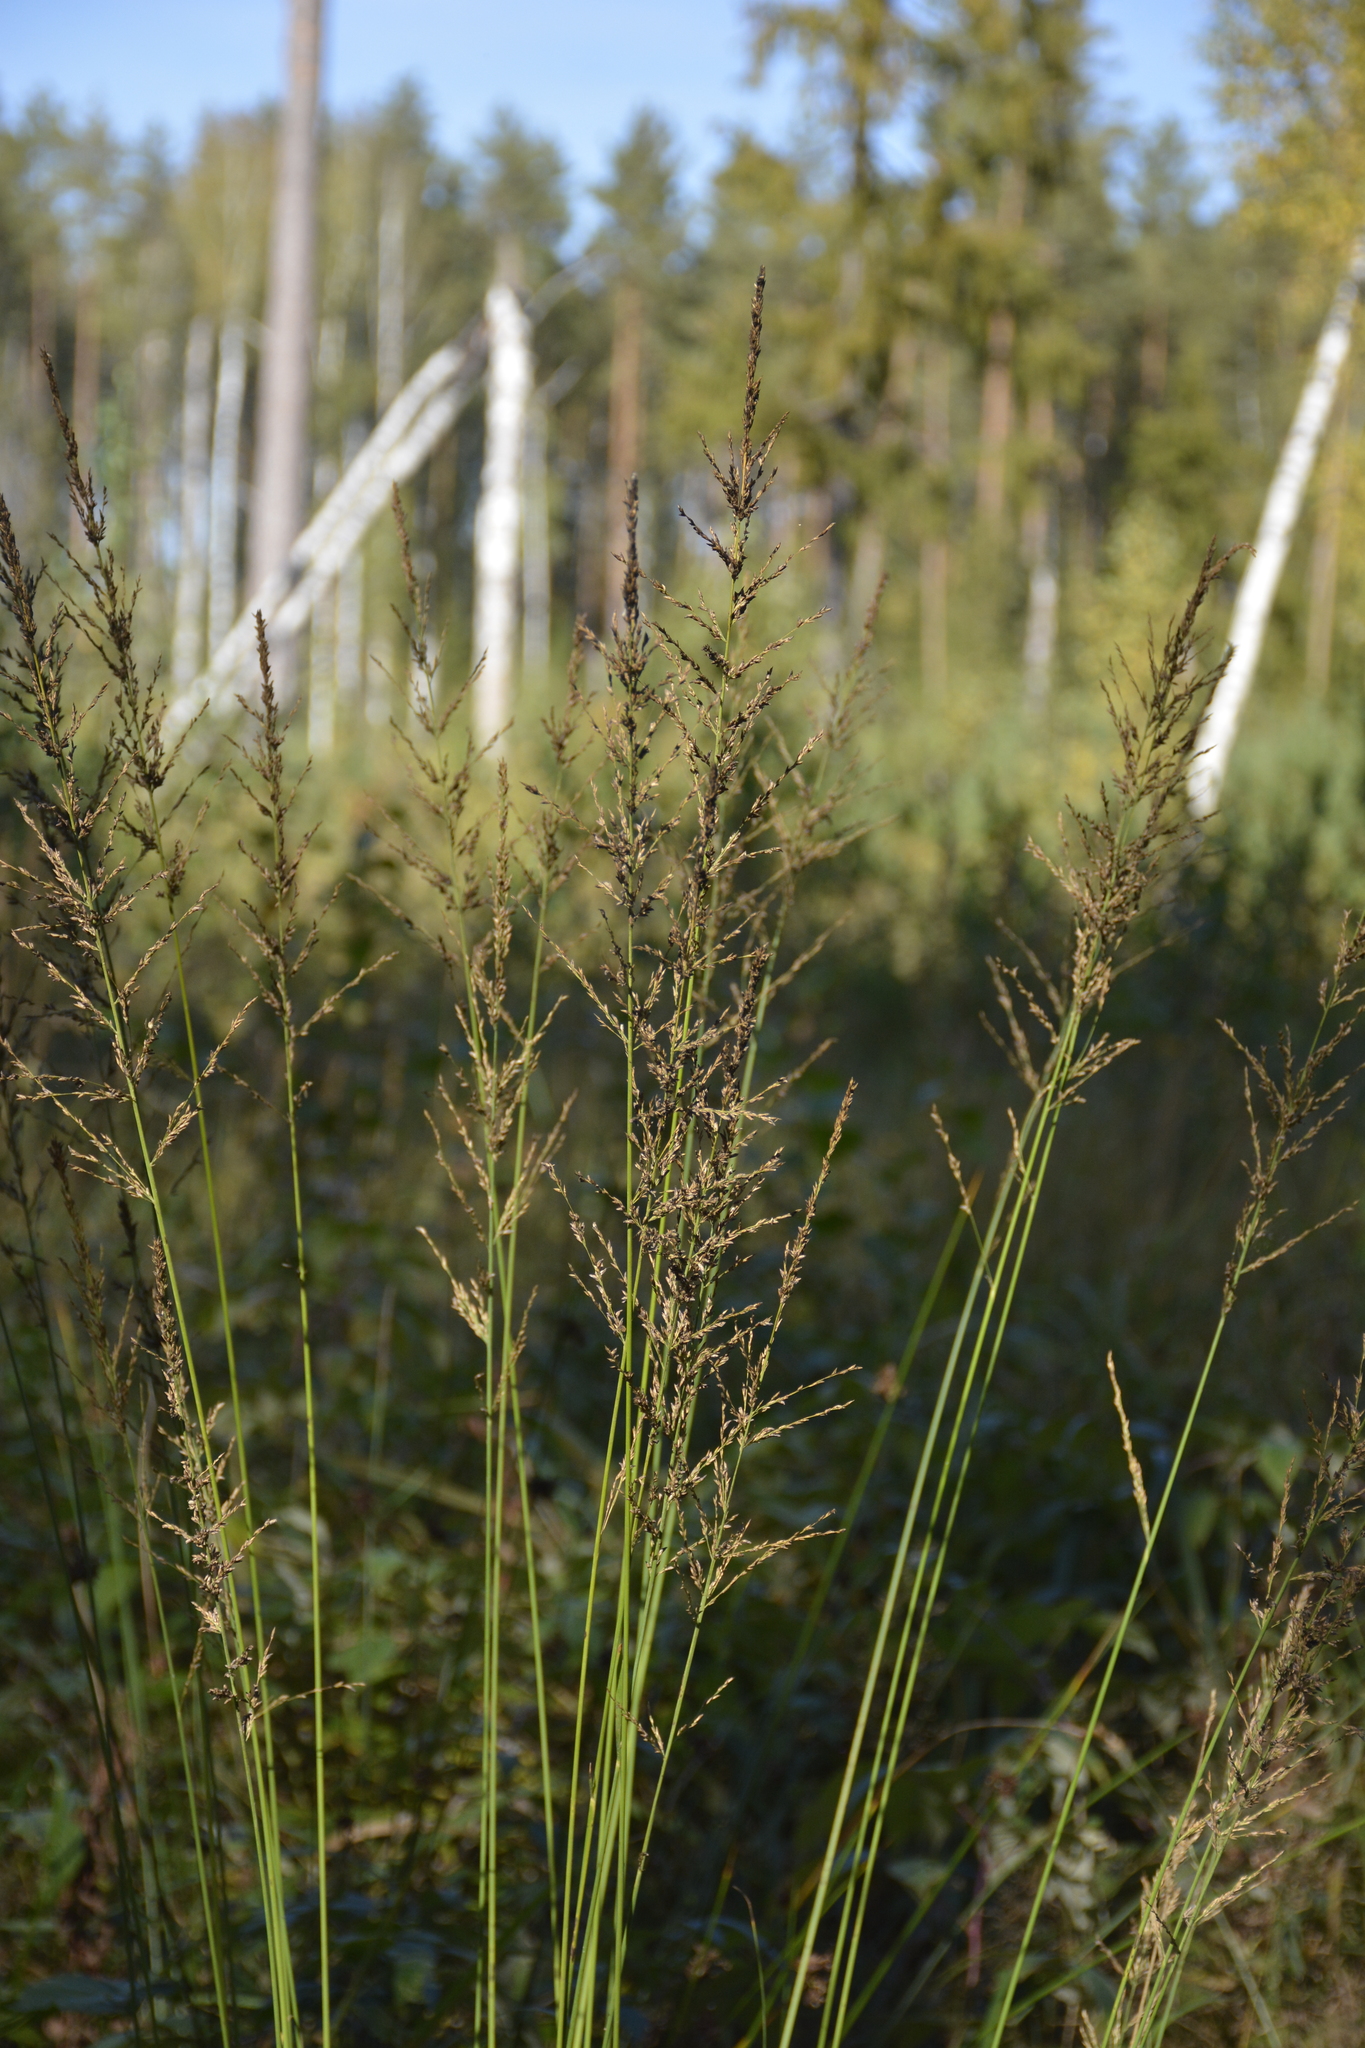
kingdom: Plantae
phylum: Tracheophyta
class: Liliopsida
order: Poales
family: Poaceae
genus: Molinia
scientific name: Molinia caerulea
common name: Purple moor-grass
